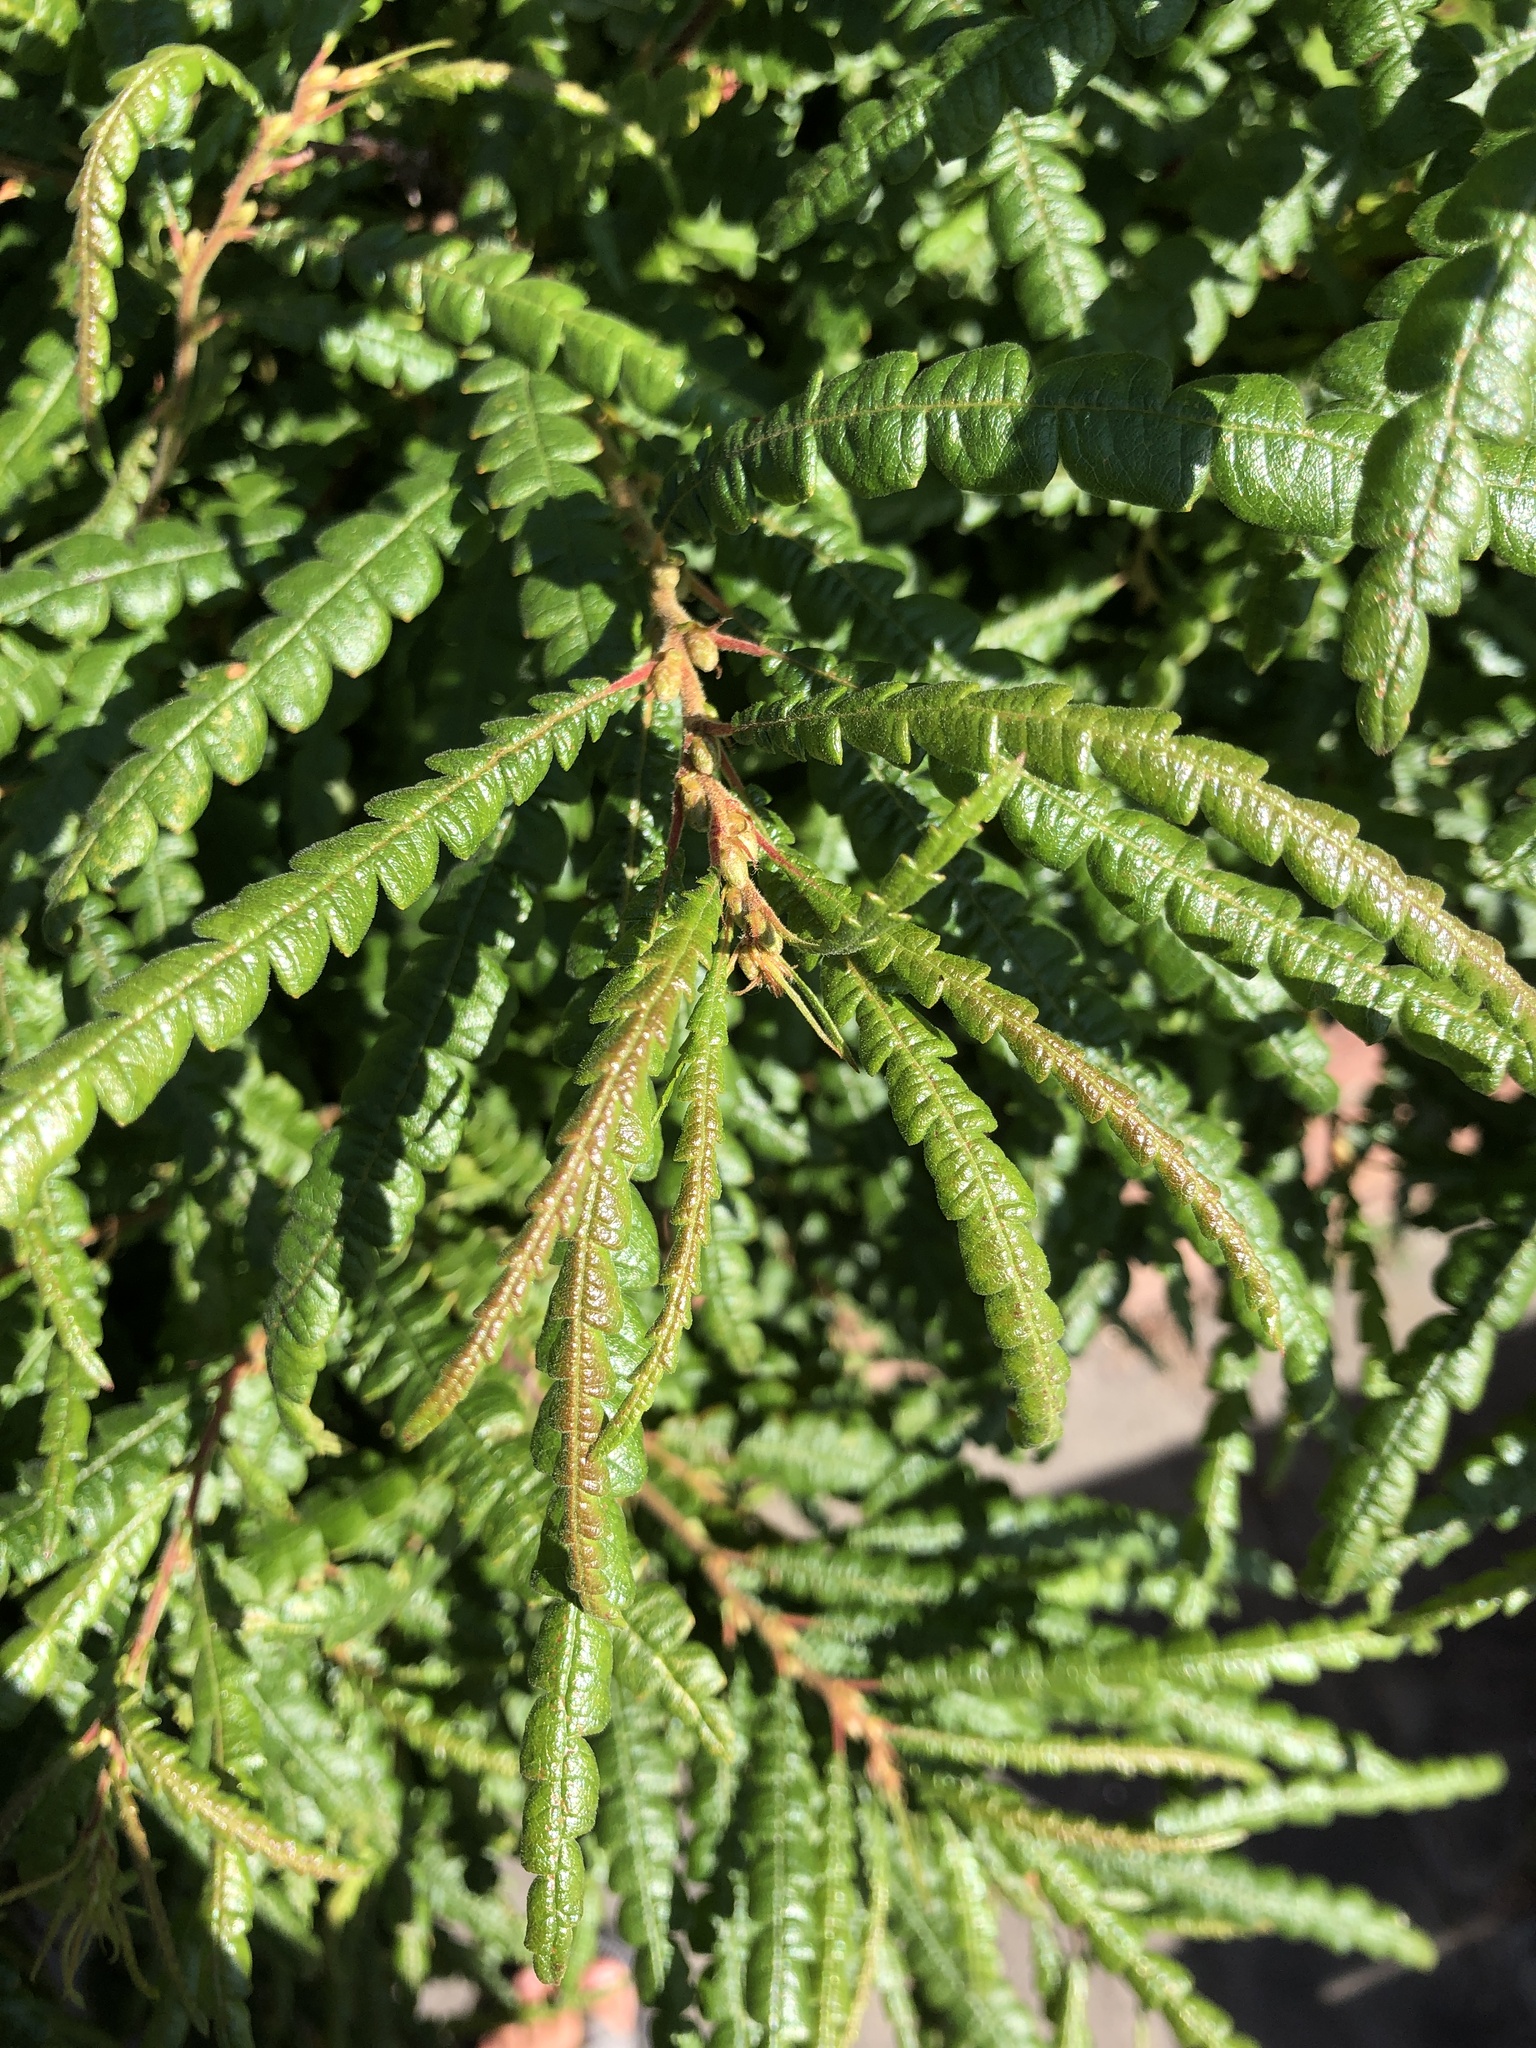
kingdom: Plantae
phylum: Tracheophyta
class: Magnoliopsida
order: Fagales
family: Myricaceae
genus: Comptonia
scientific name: Comptonia peregrina
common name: Sweet-fern
